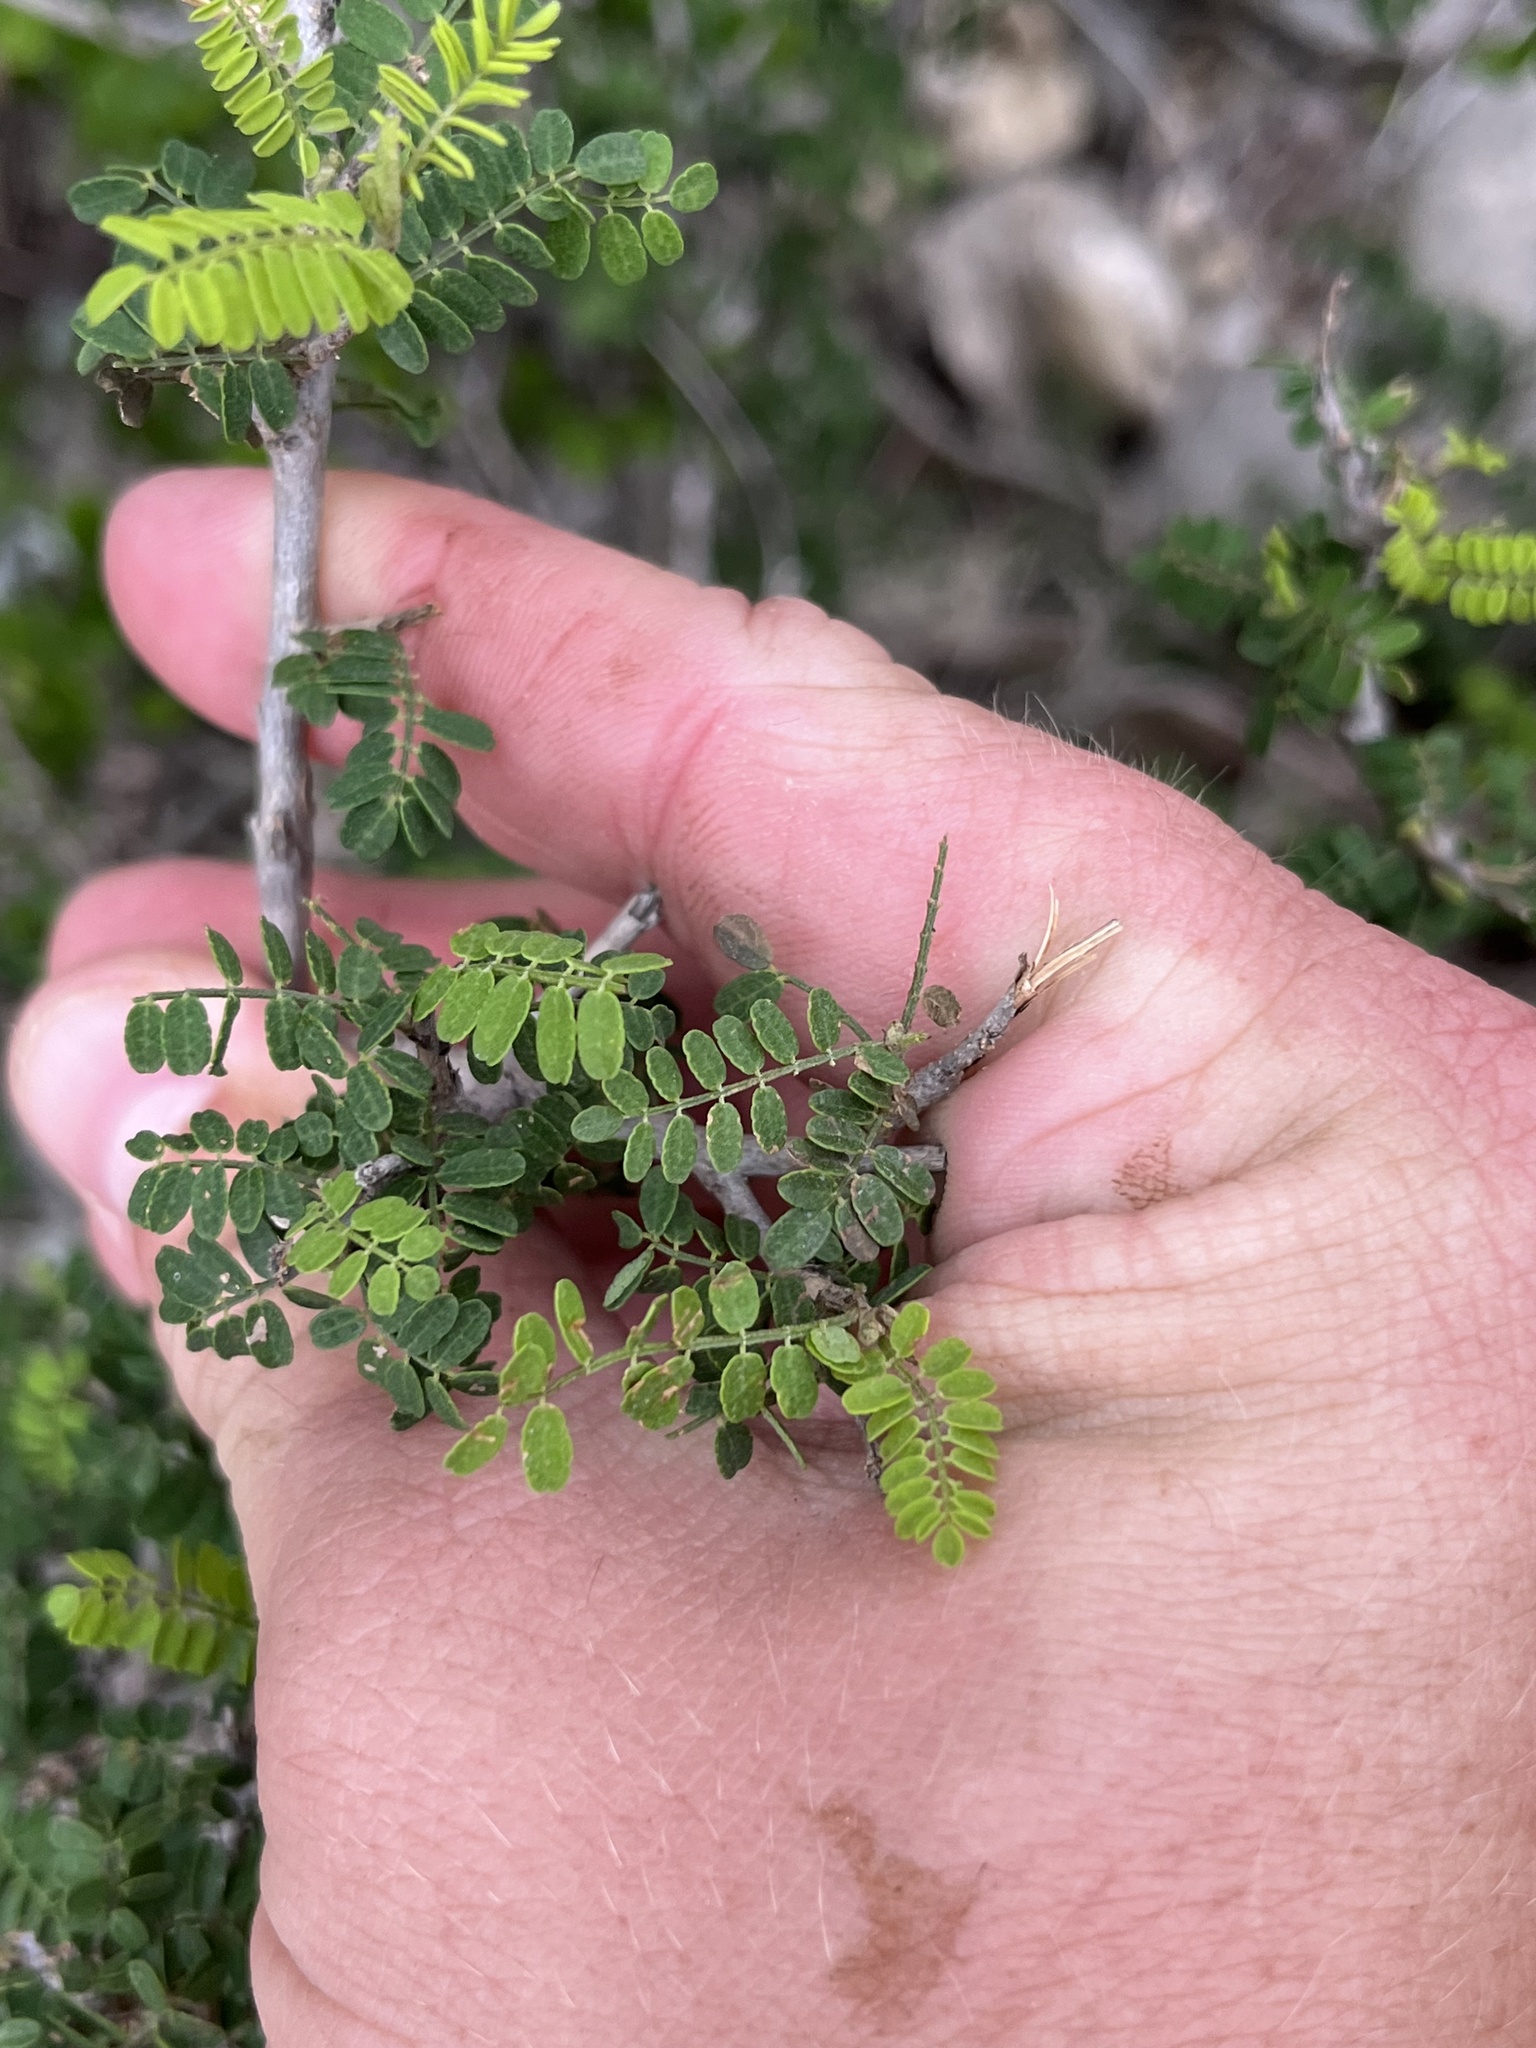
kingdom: Plantae
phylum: Tracheophyta
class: Magnoliopsida
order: Fabales
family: Fabaceae
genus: Eysenhardtia
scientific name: Eysenhardtia texana
